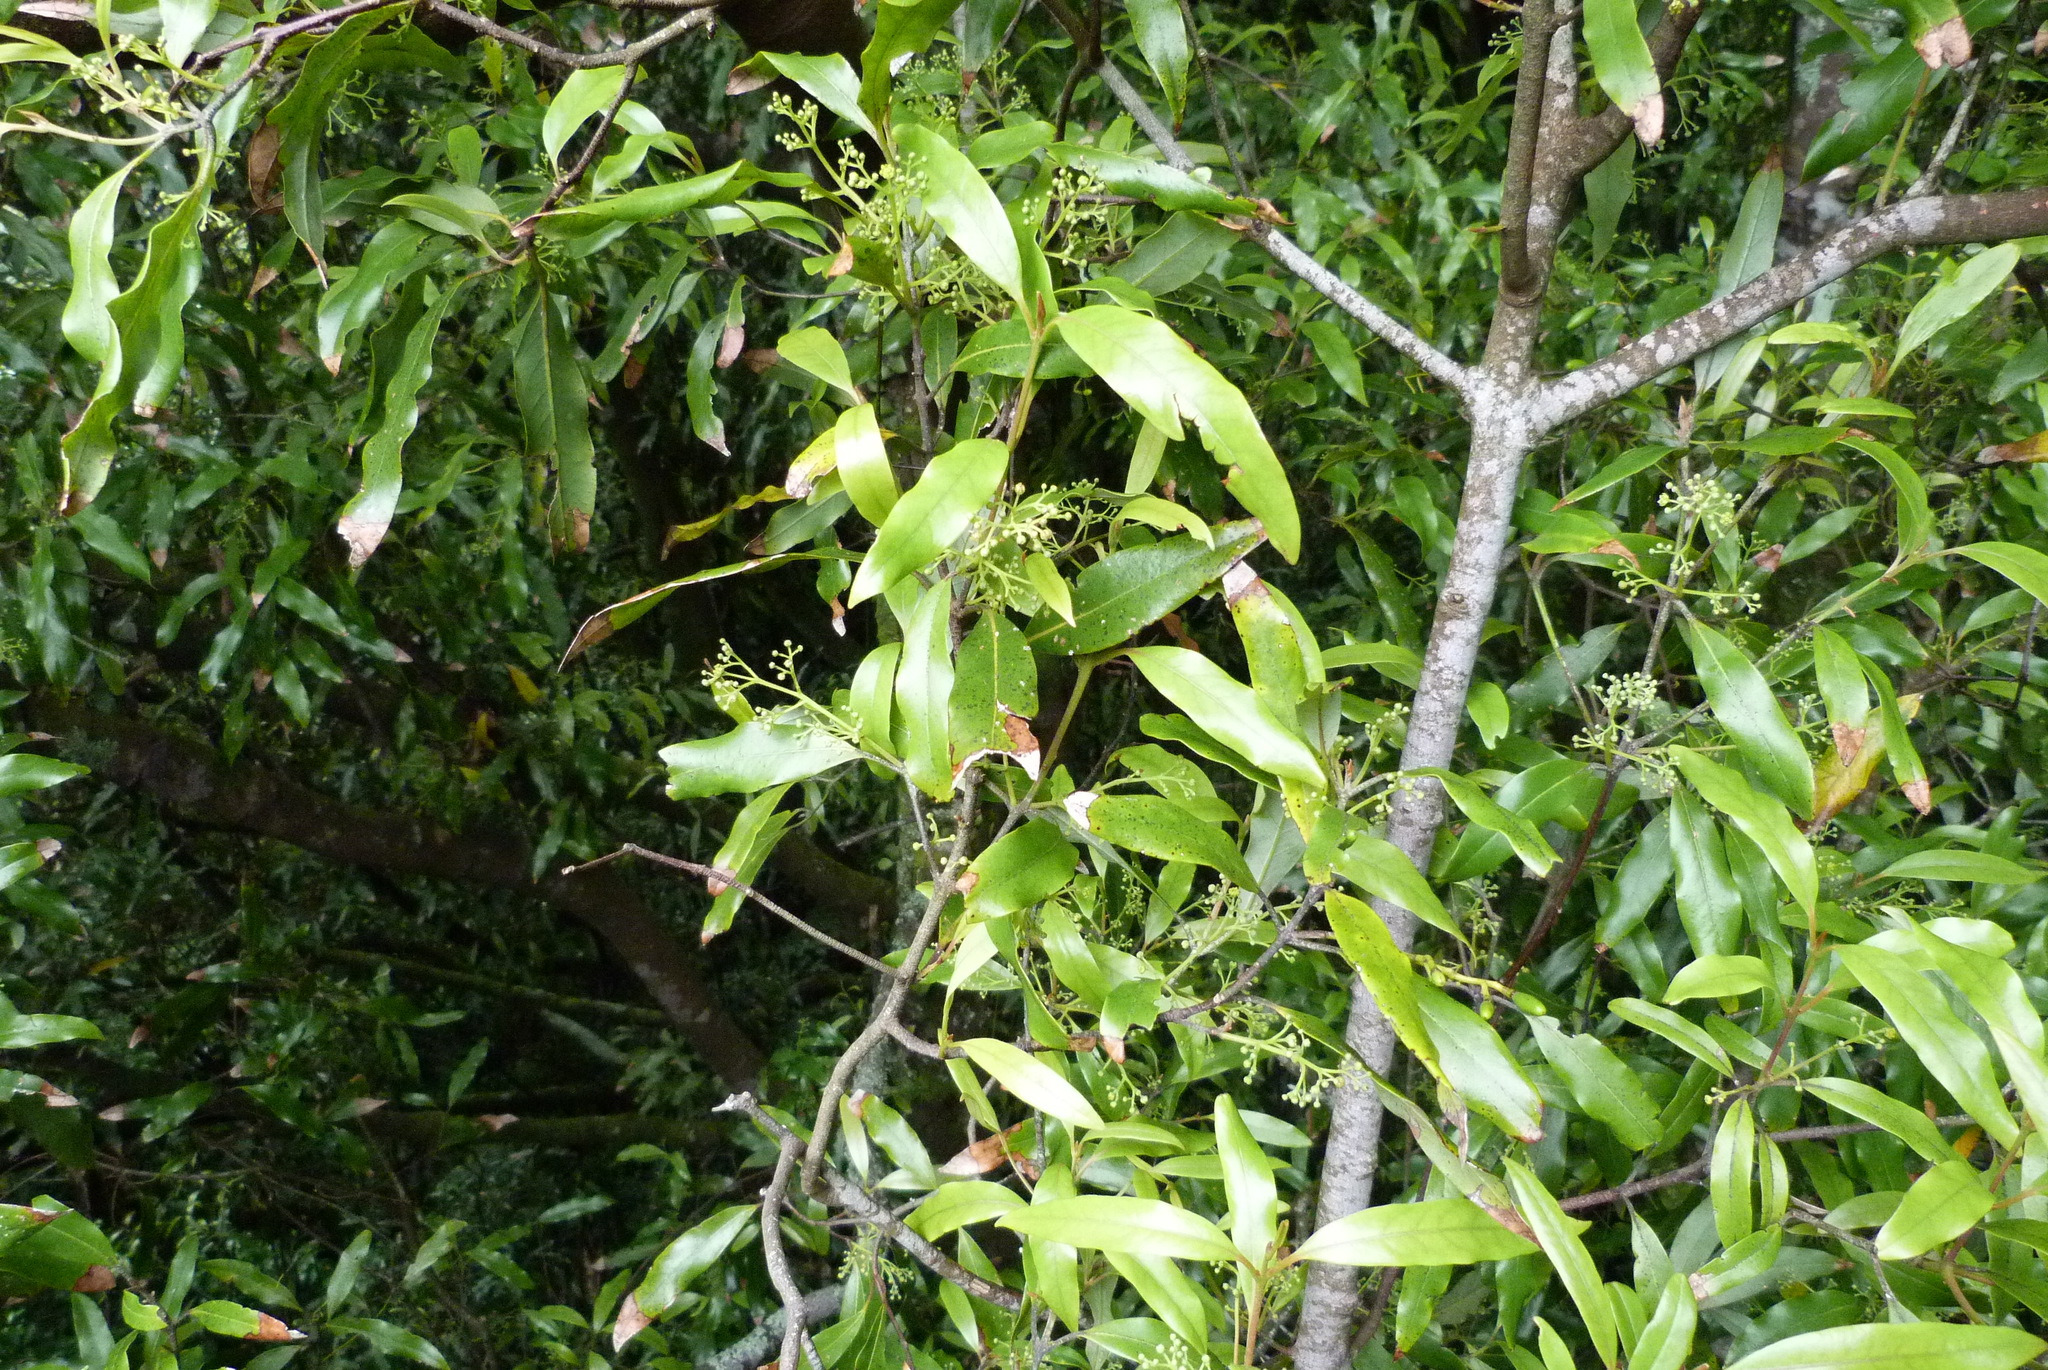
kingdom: Plantae
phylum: Tracheophyta
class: Magnoliopsida
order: Laurales
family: Lauraceae
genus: Beilschmiedia
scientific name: Beilschmiedia tawa
